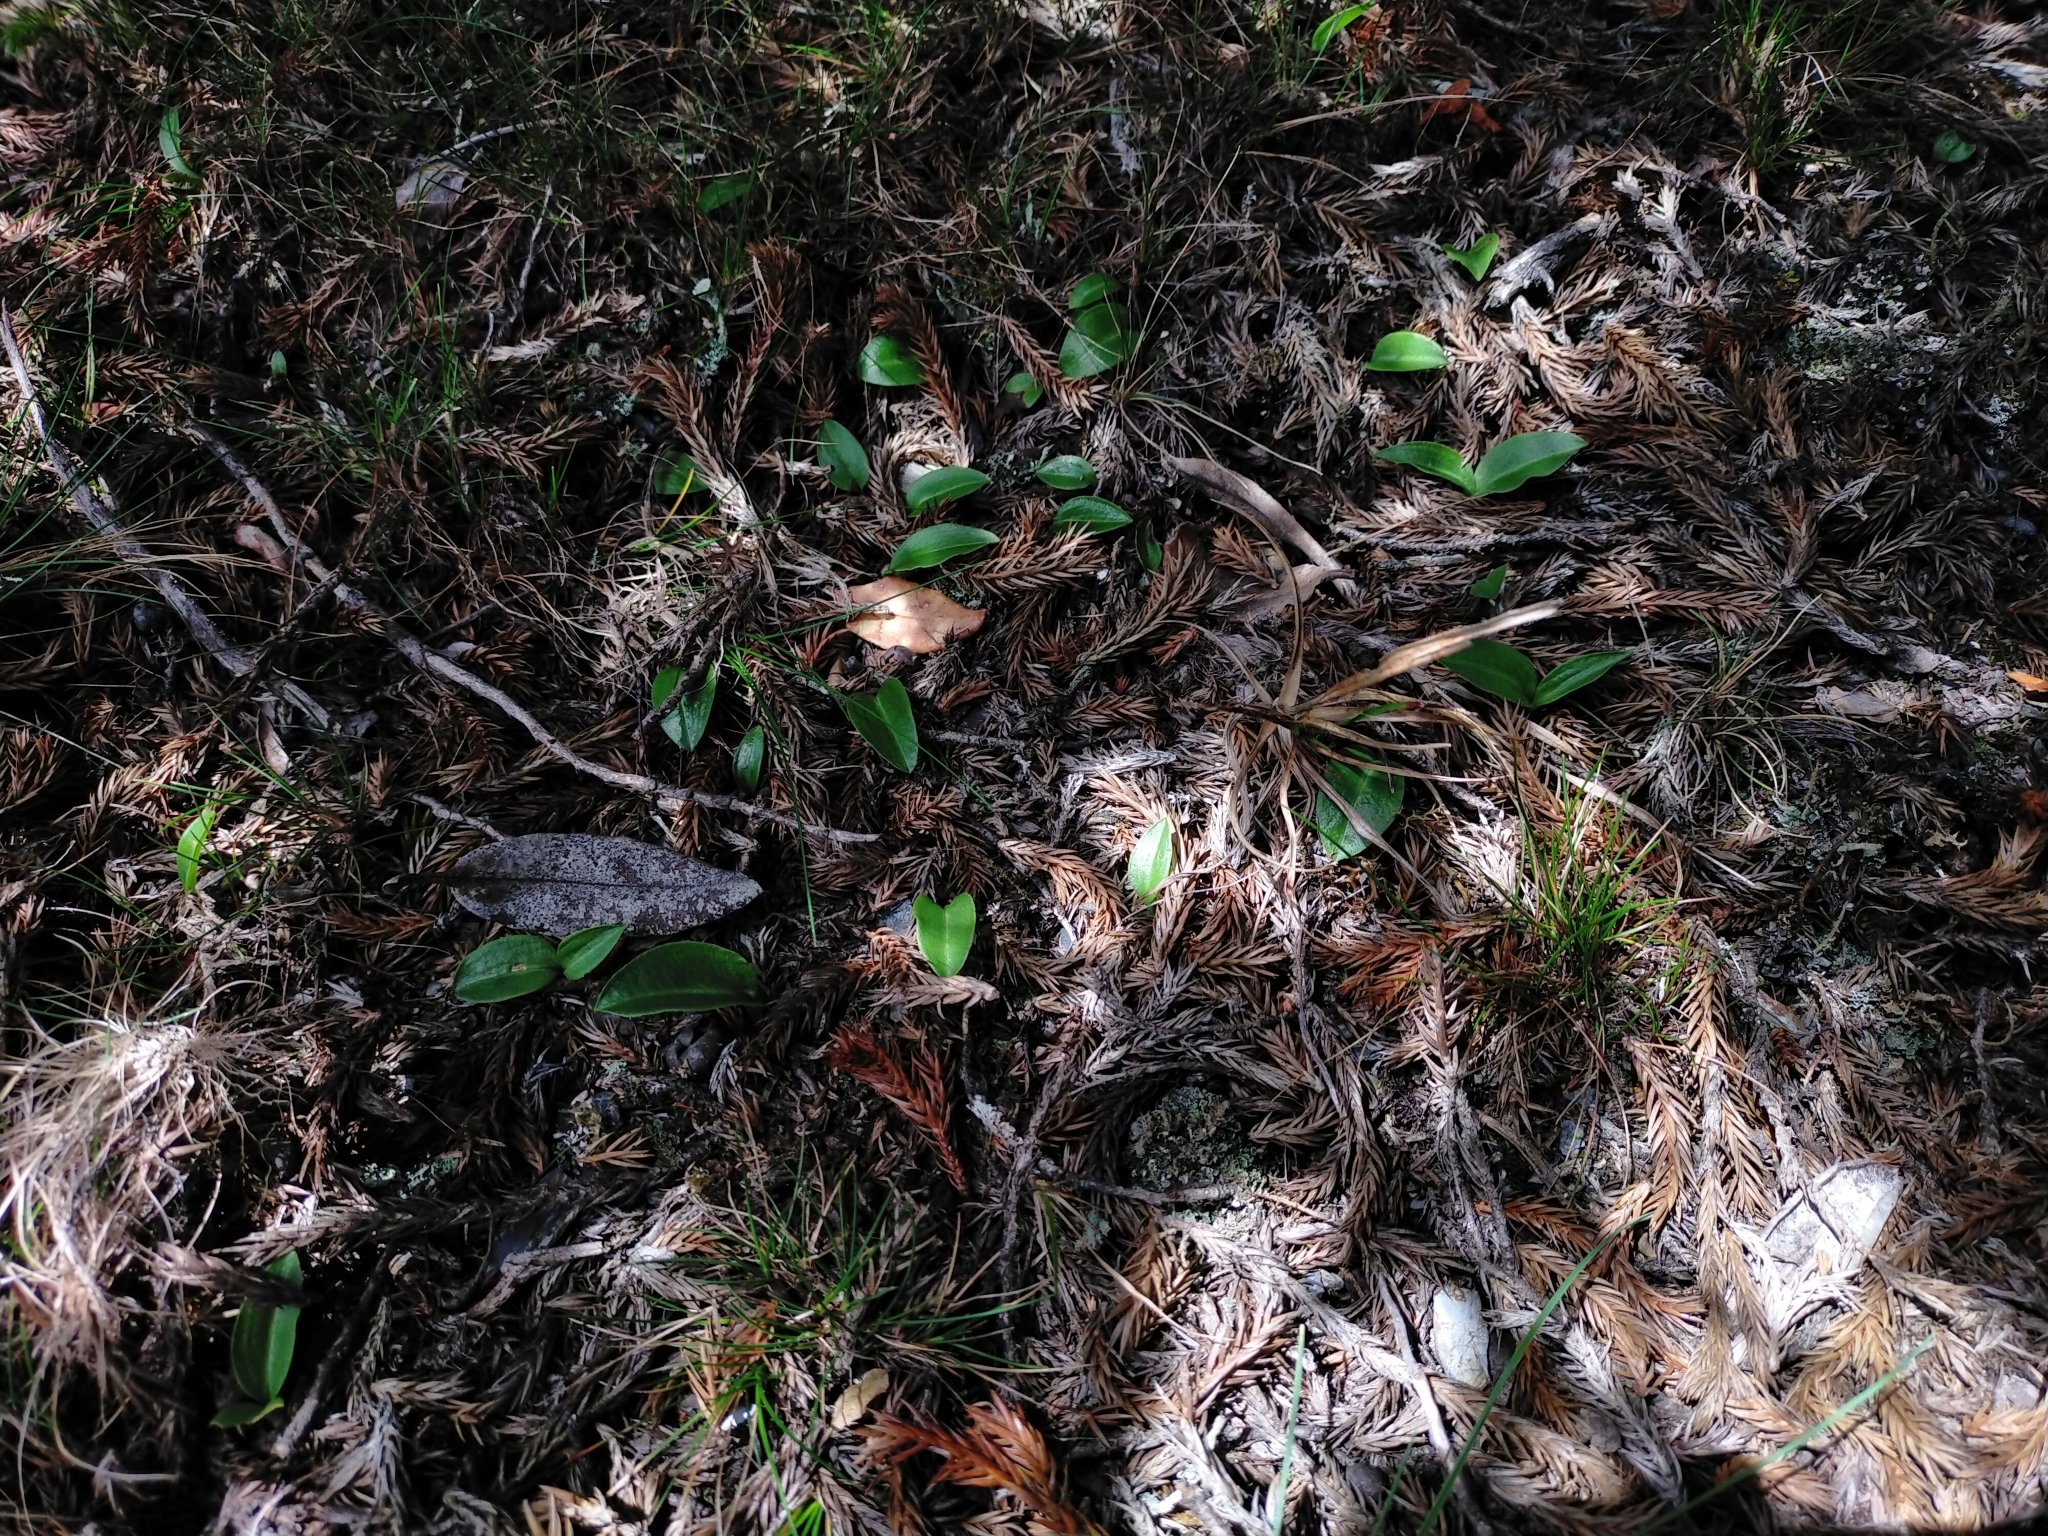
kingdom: Plantae
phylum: Tracheophyta
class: Liliopsida
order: Asparagales
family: Orchidaceae
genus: Platanthera
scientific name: Platanthera brevicalcarata
